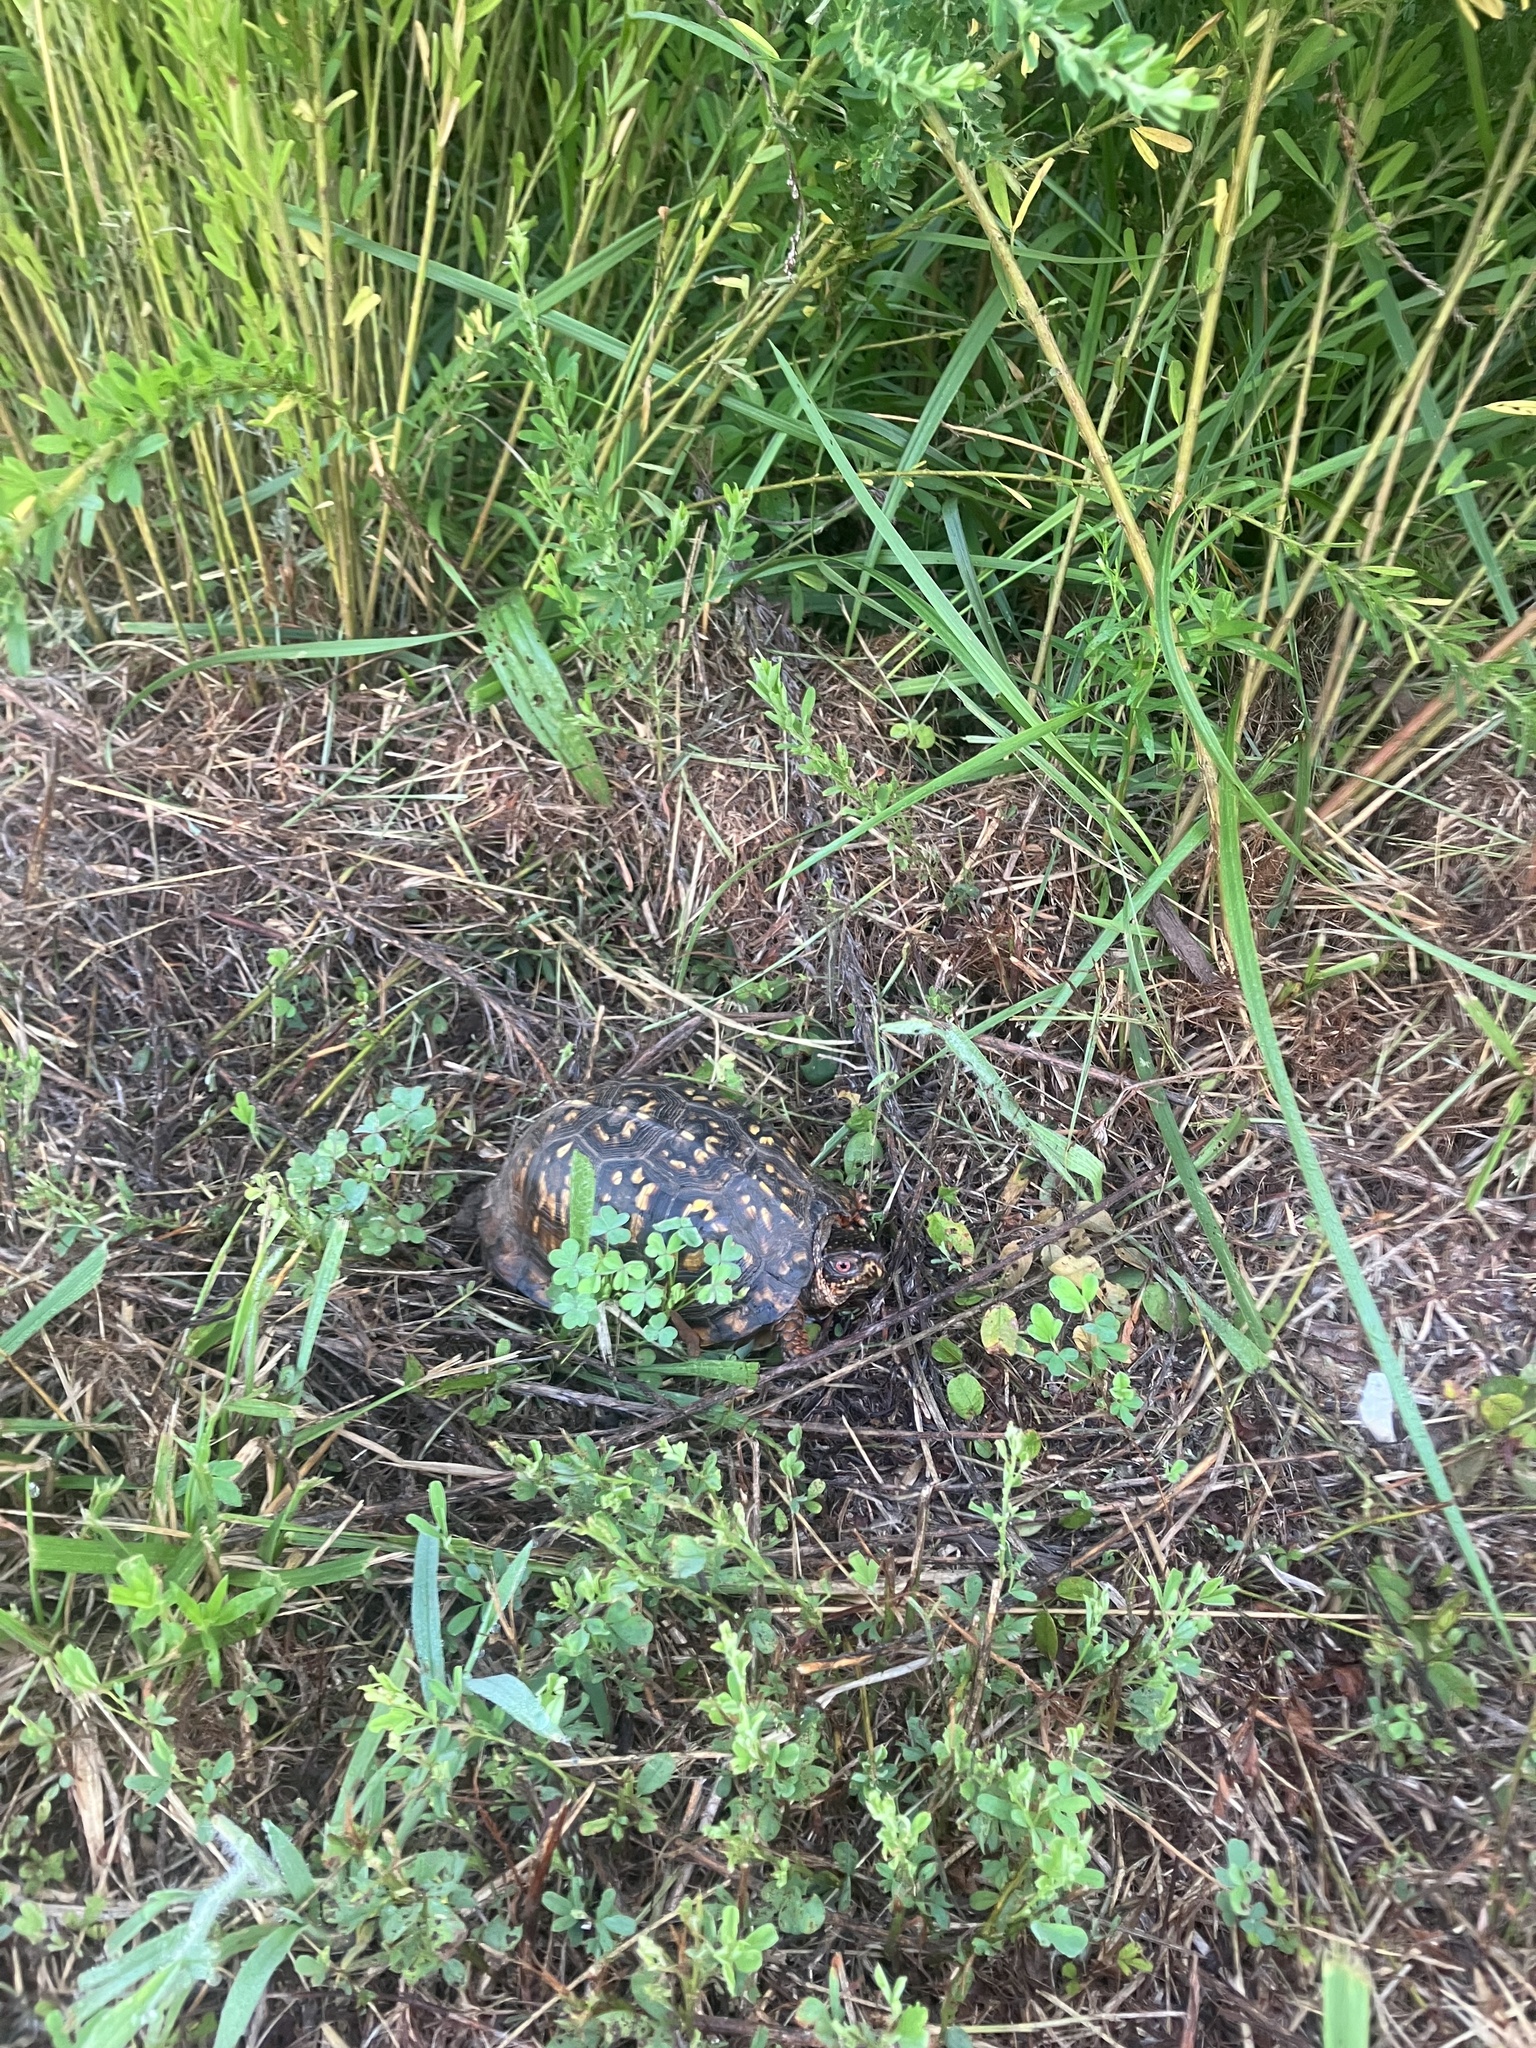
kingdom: Animalia
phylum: Chordata
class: Testudines
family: Emydidae
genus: Terrapene
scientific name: Terrapene carolina
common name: Common box turtle
